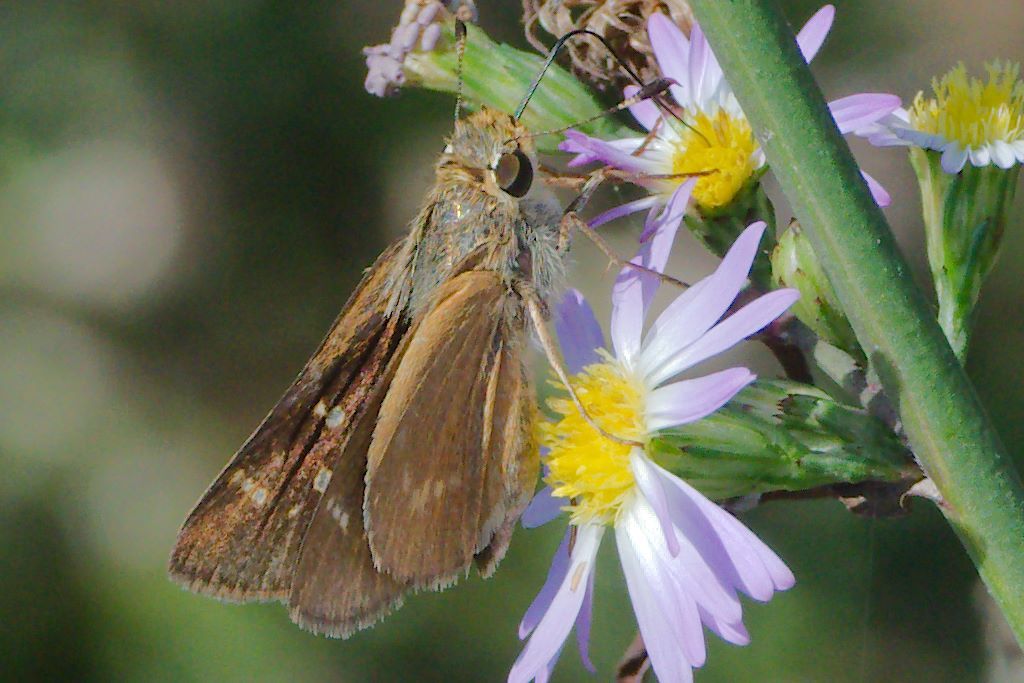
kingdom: Animalia
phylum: Arthropoda
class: Insecta
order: Lepidoptera
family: Hesperiidae
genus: Mellana
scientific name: Mellana eulogius
